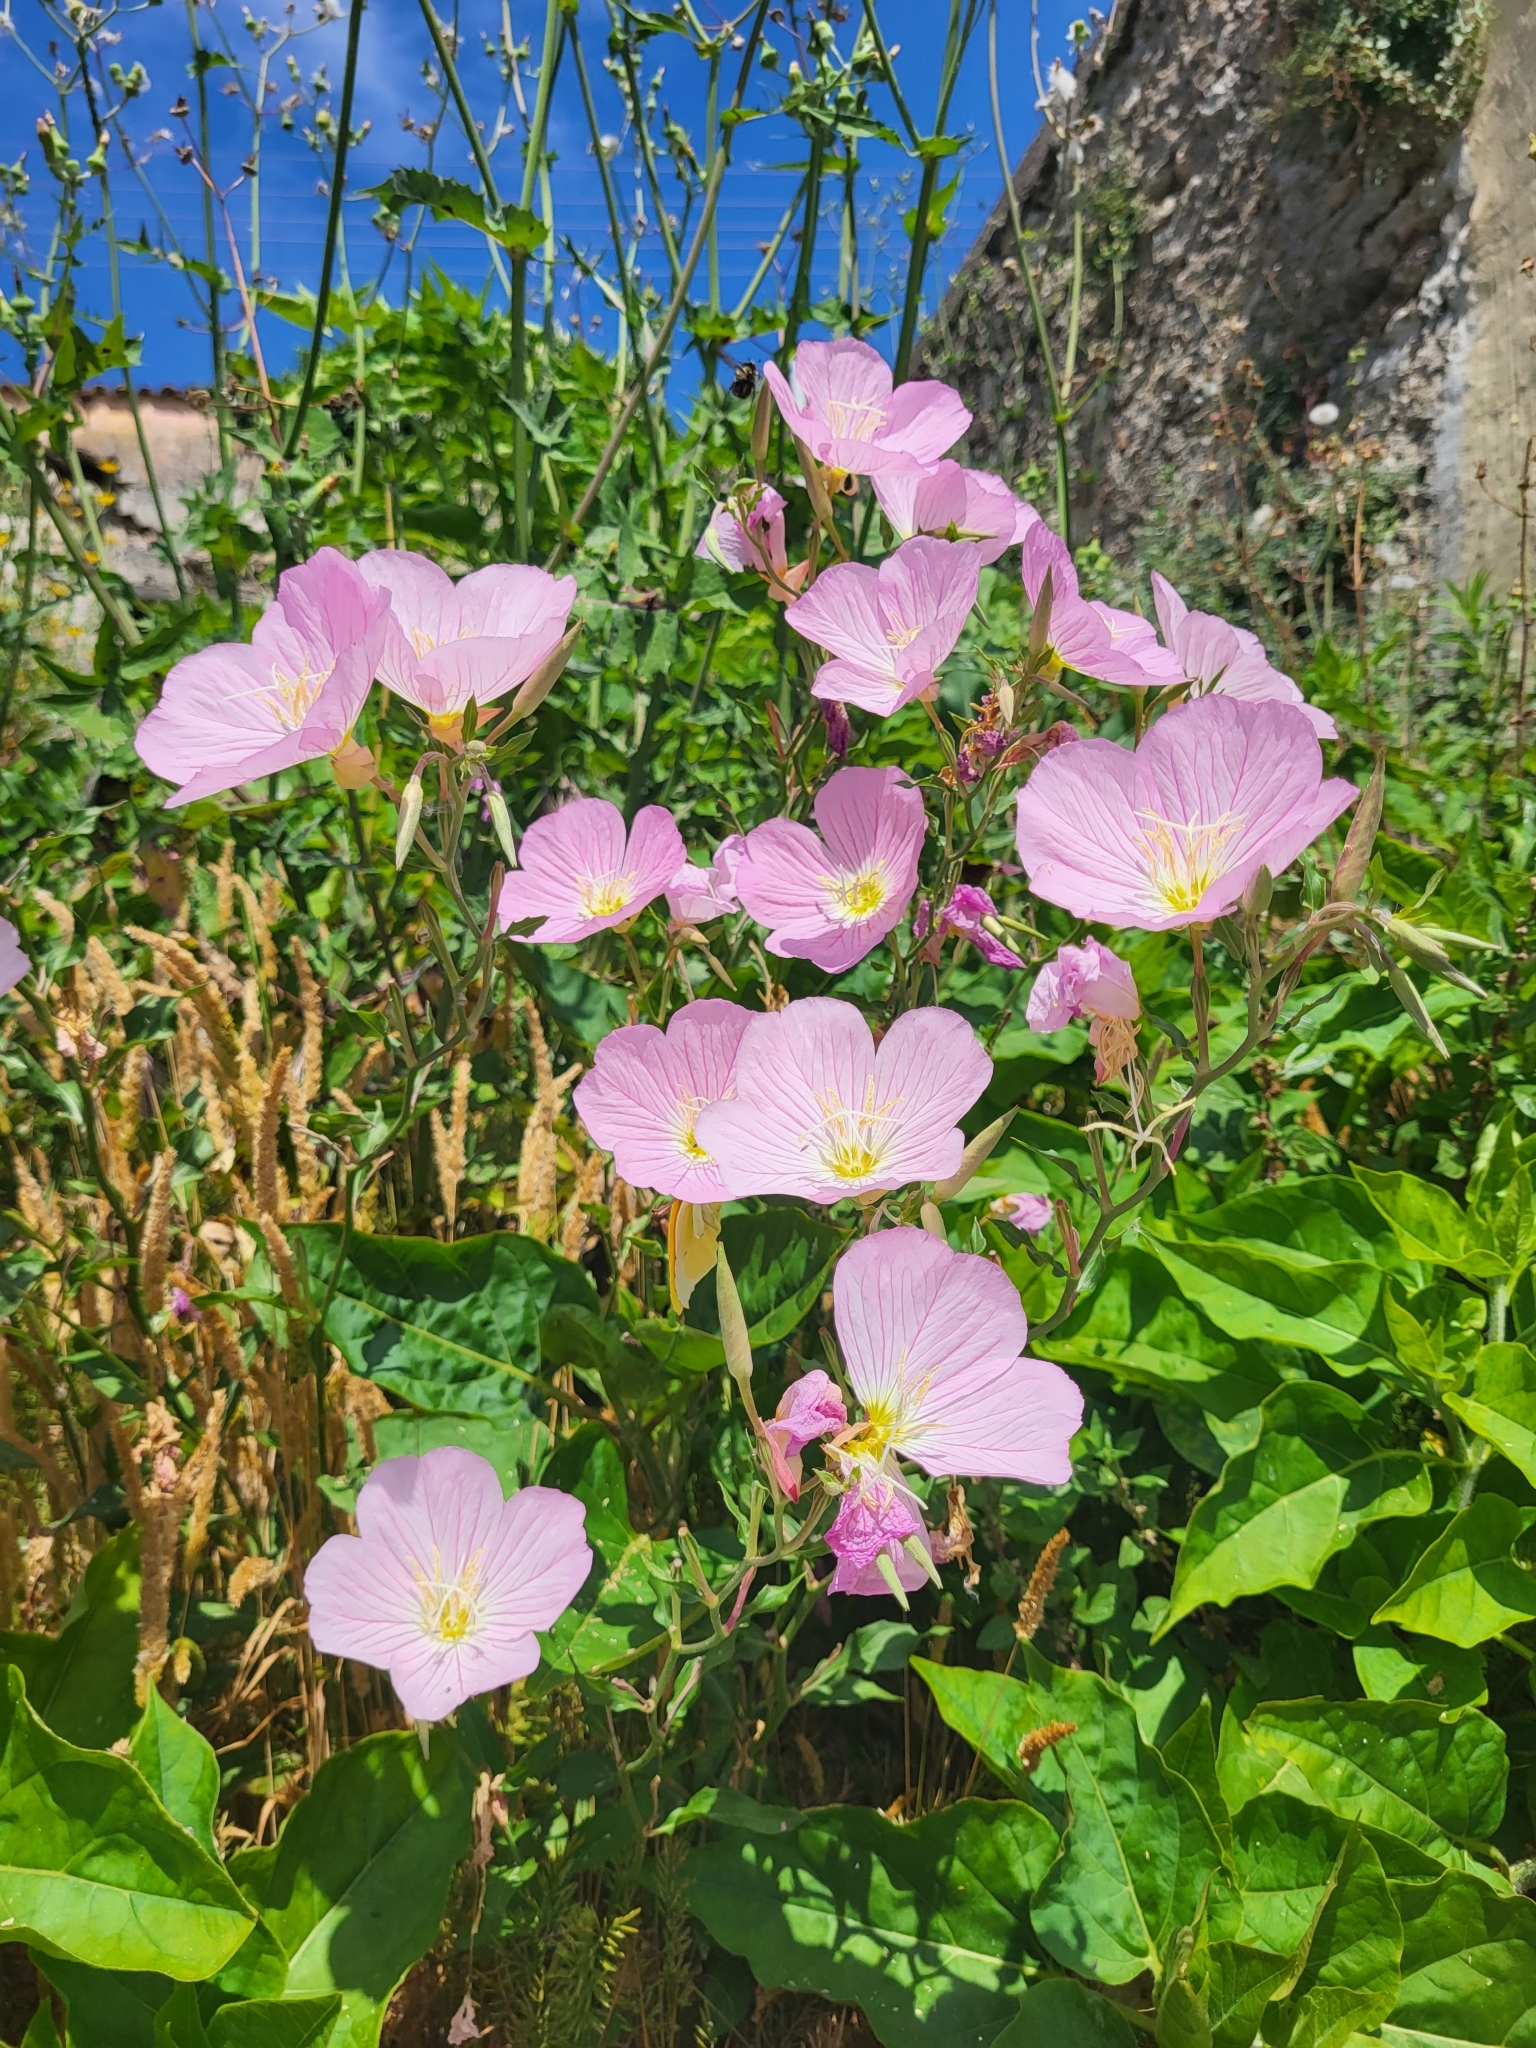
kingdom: Plantae
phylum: Tracheophyta
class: Magnoliopsida
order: Myrtales
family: Onagraceae
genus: Oenothera
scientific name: Oenothera speciosa
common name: White evening-primrose
